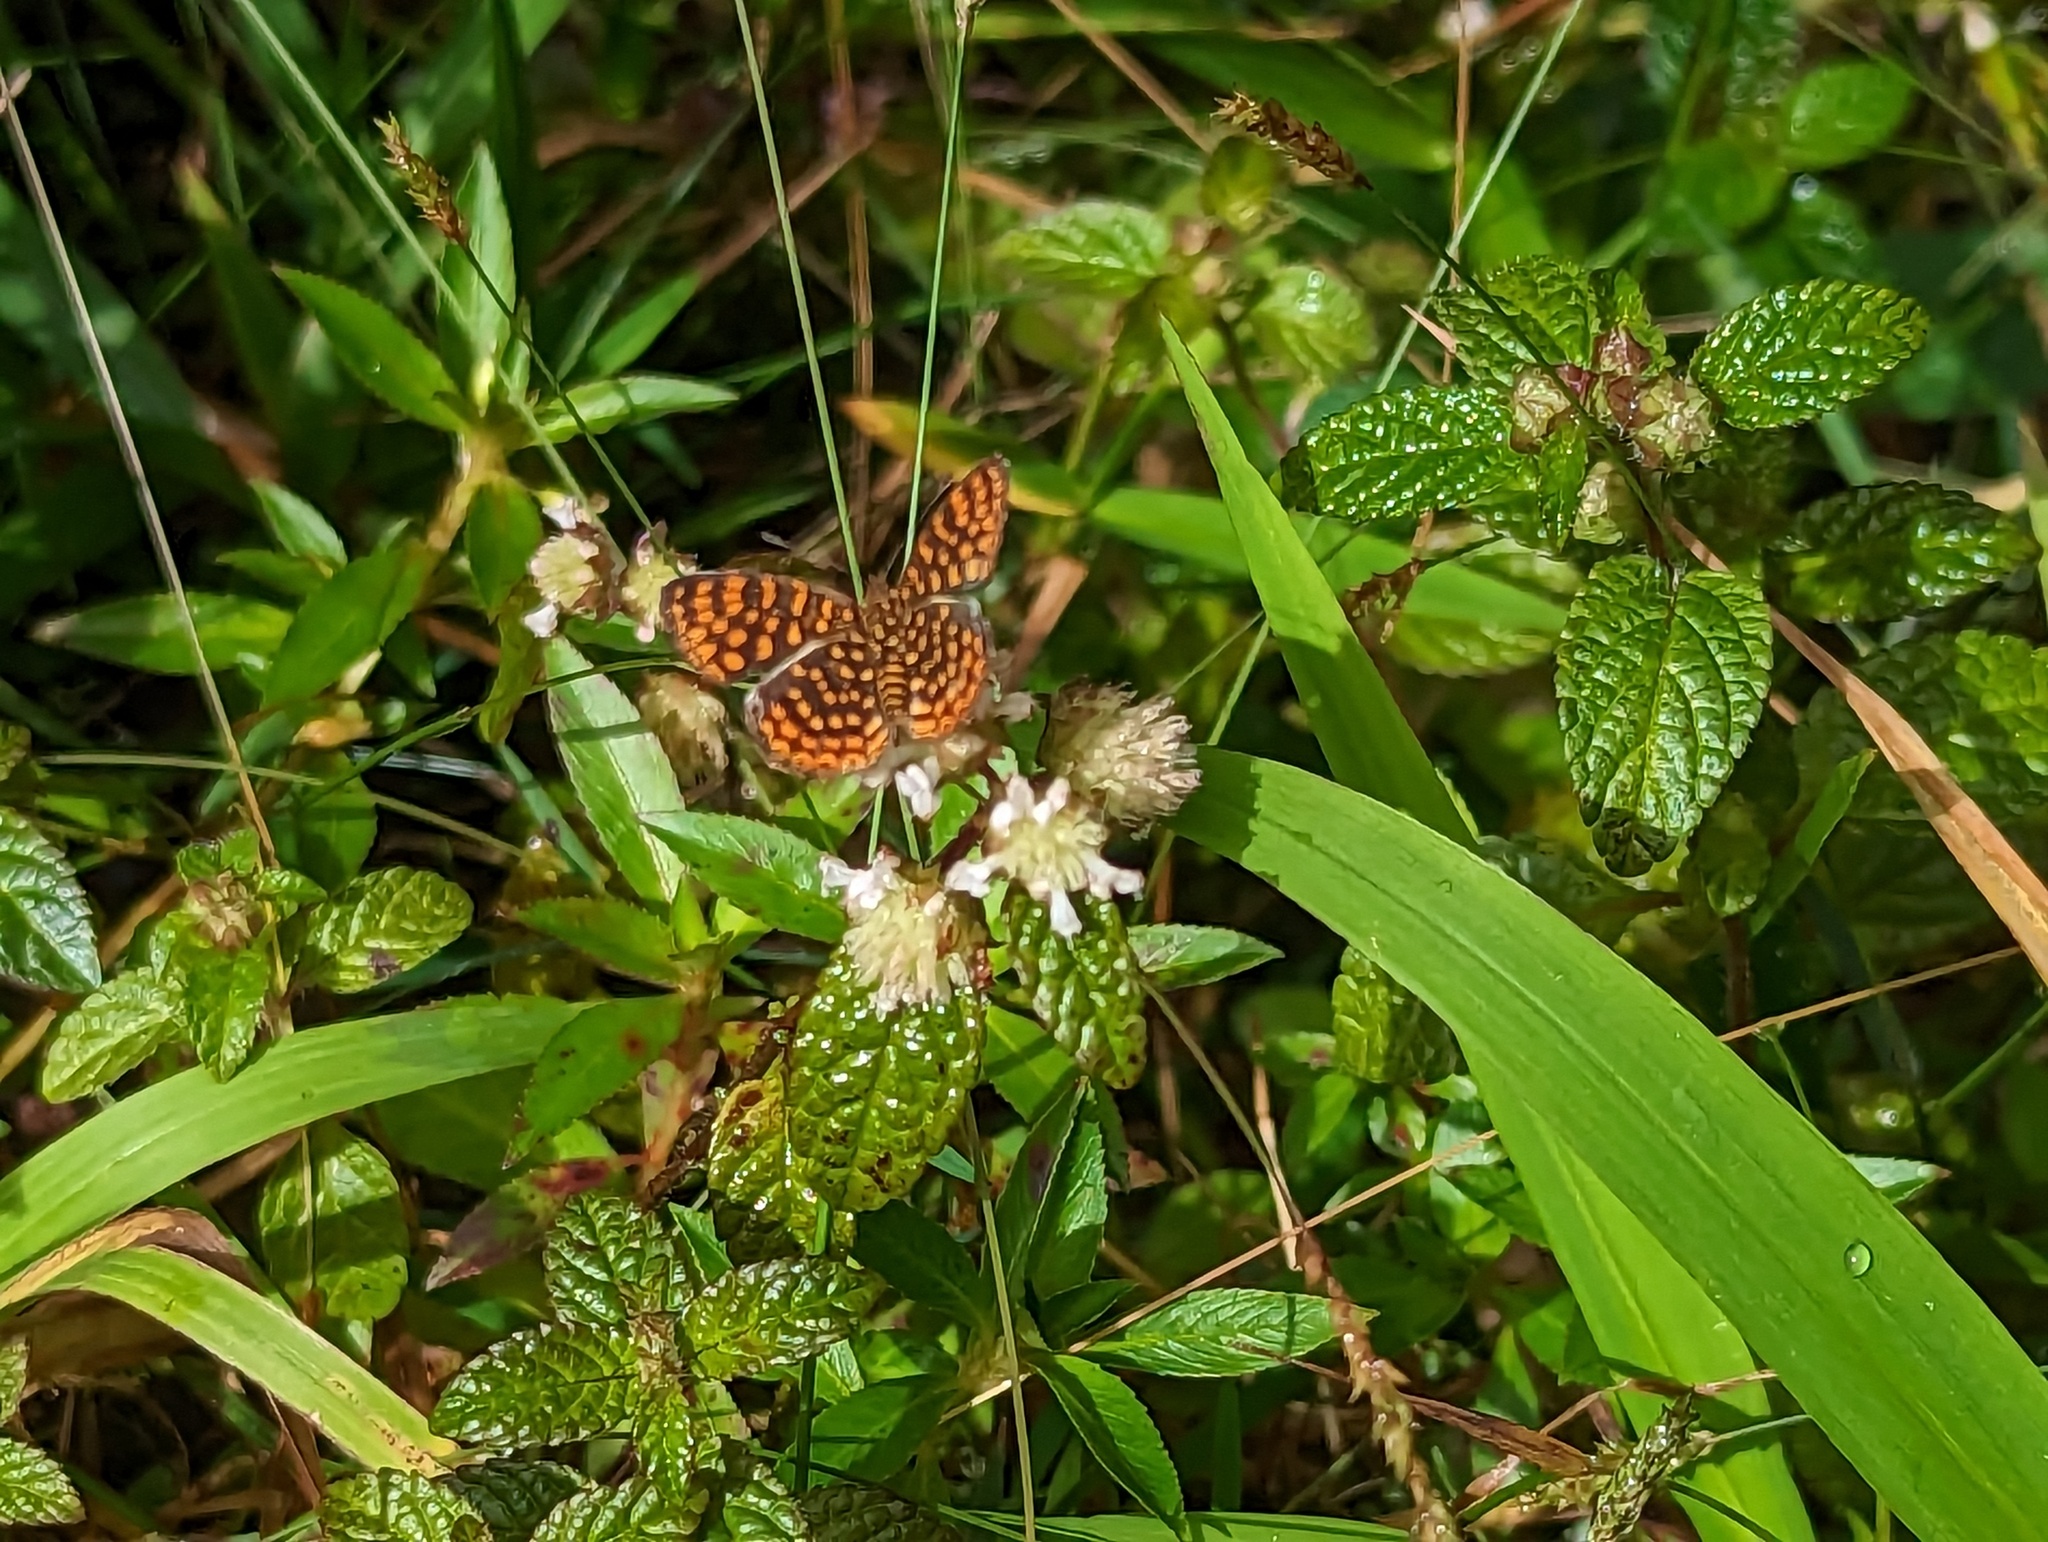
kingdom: Animalia
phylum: Arthropoda
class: Insecta
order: Lepidoptera
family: Nymphalidae
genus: Antillea
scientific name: Antillea pelops
